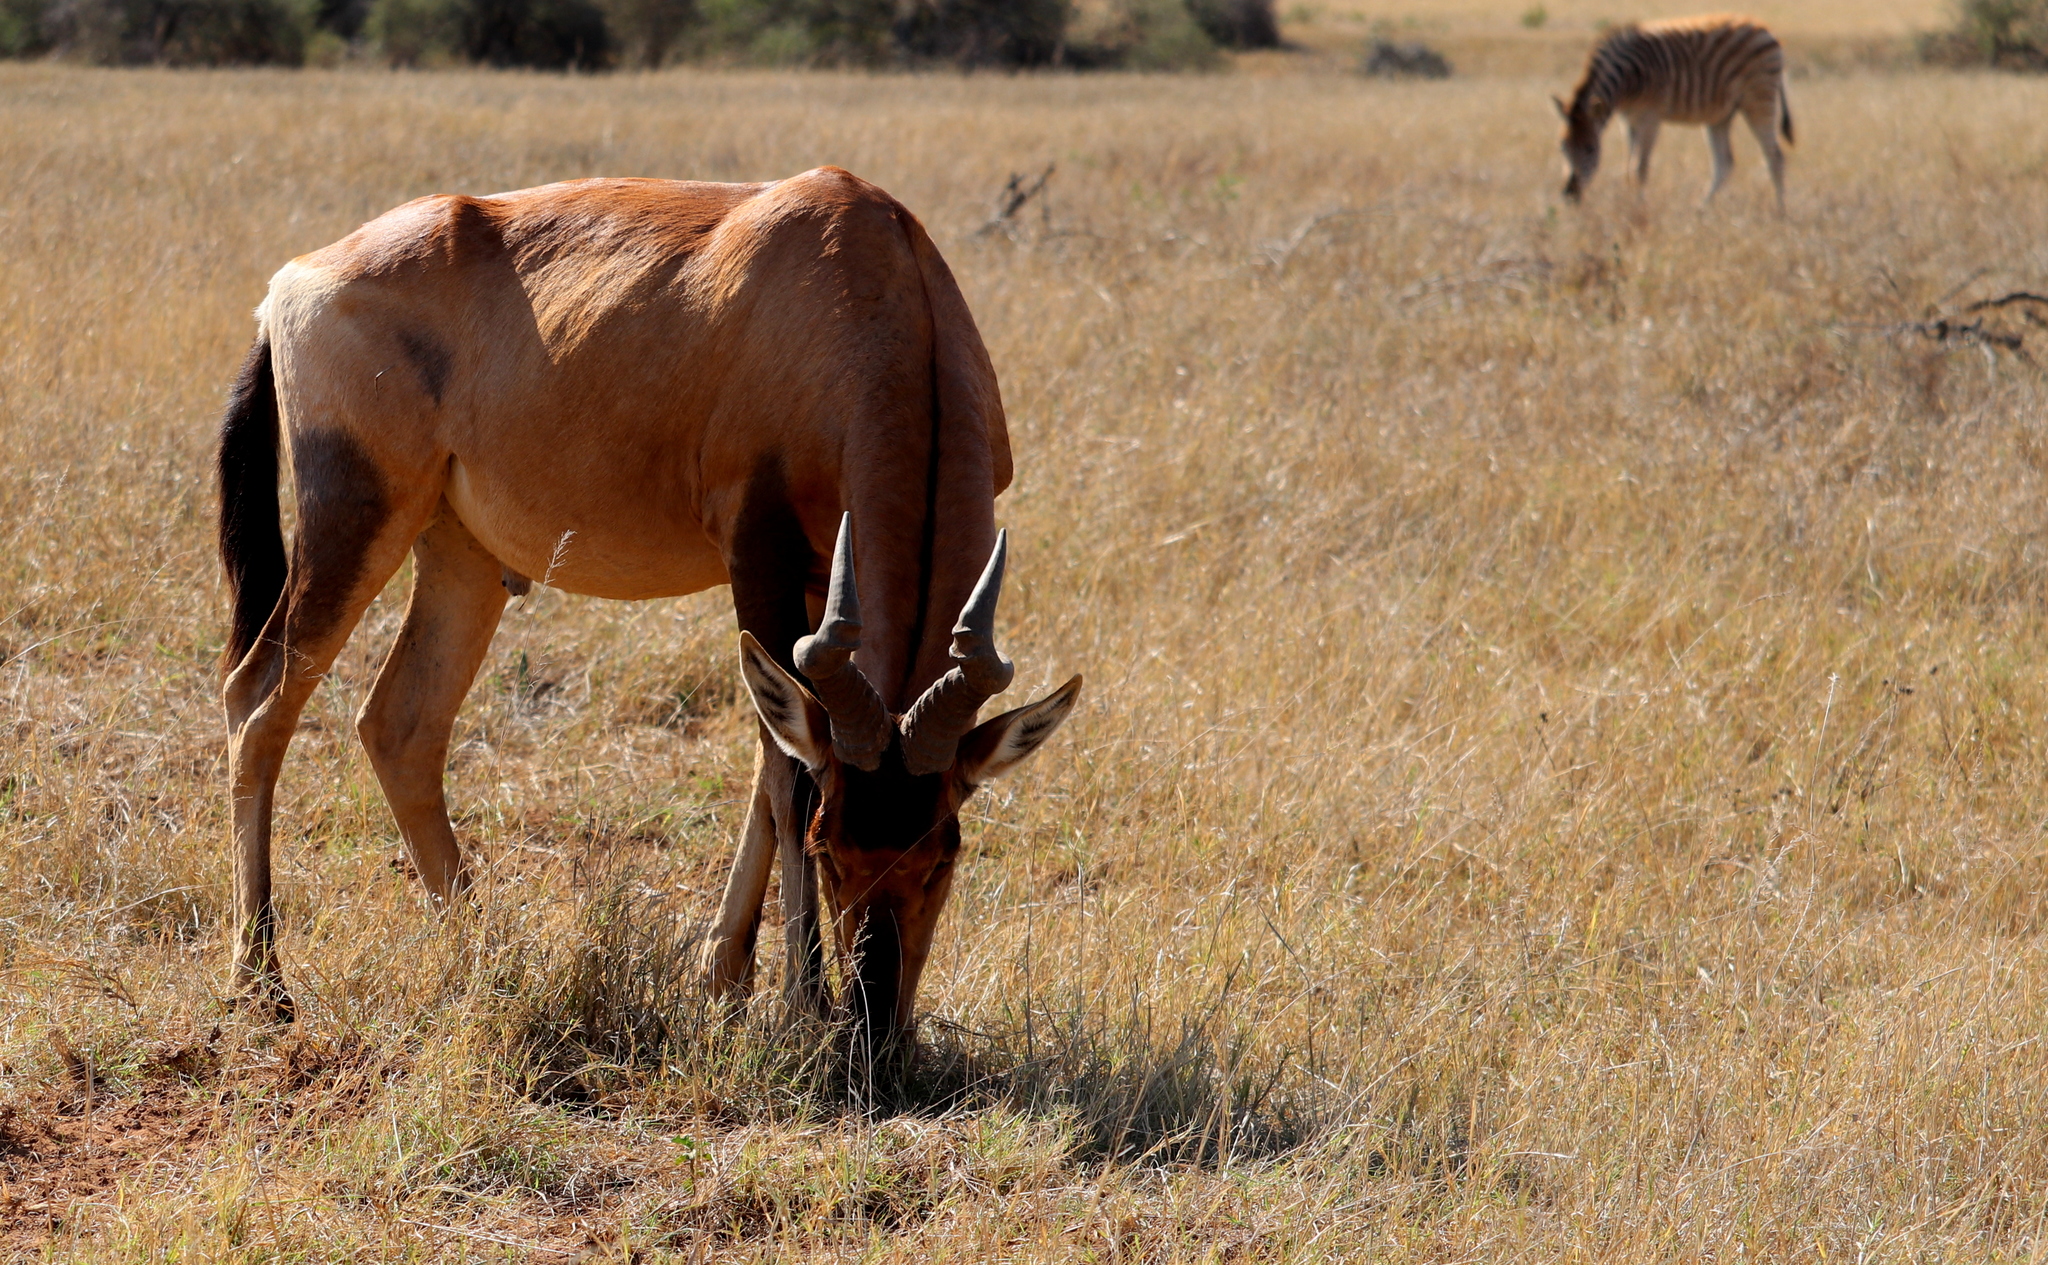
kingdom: Animalia
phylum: Chordata
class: Mammalia
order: Artiodactyla
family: Bovidae
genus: Alcelaphus
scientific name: Alcelaphus caama
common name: Red hartebeest
